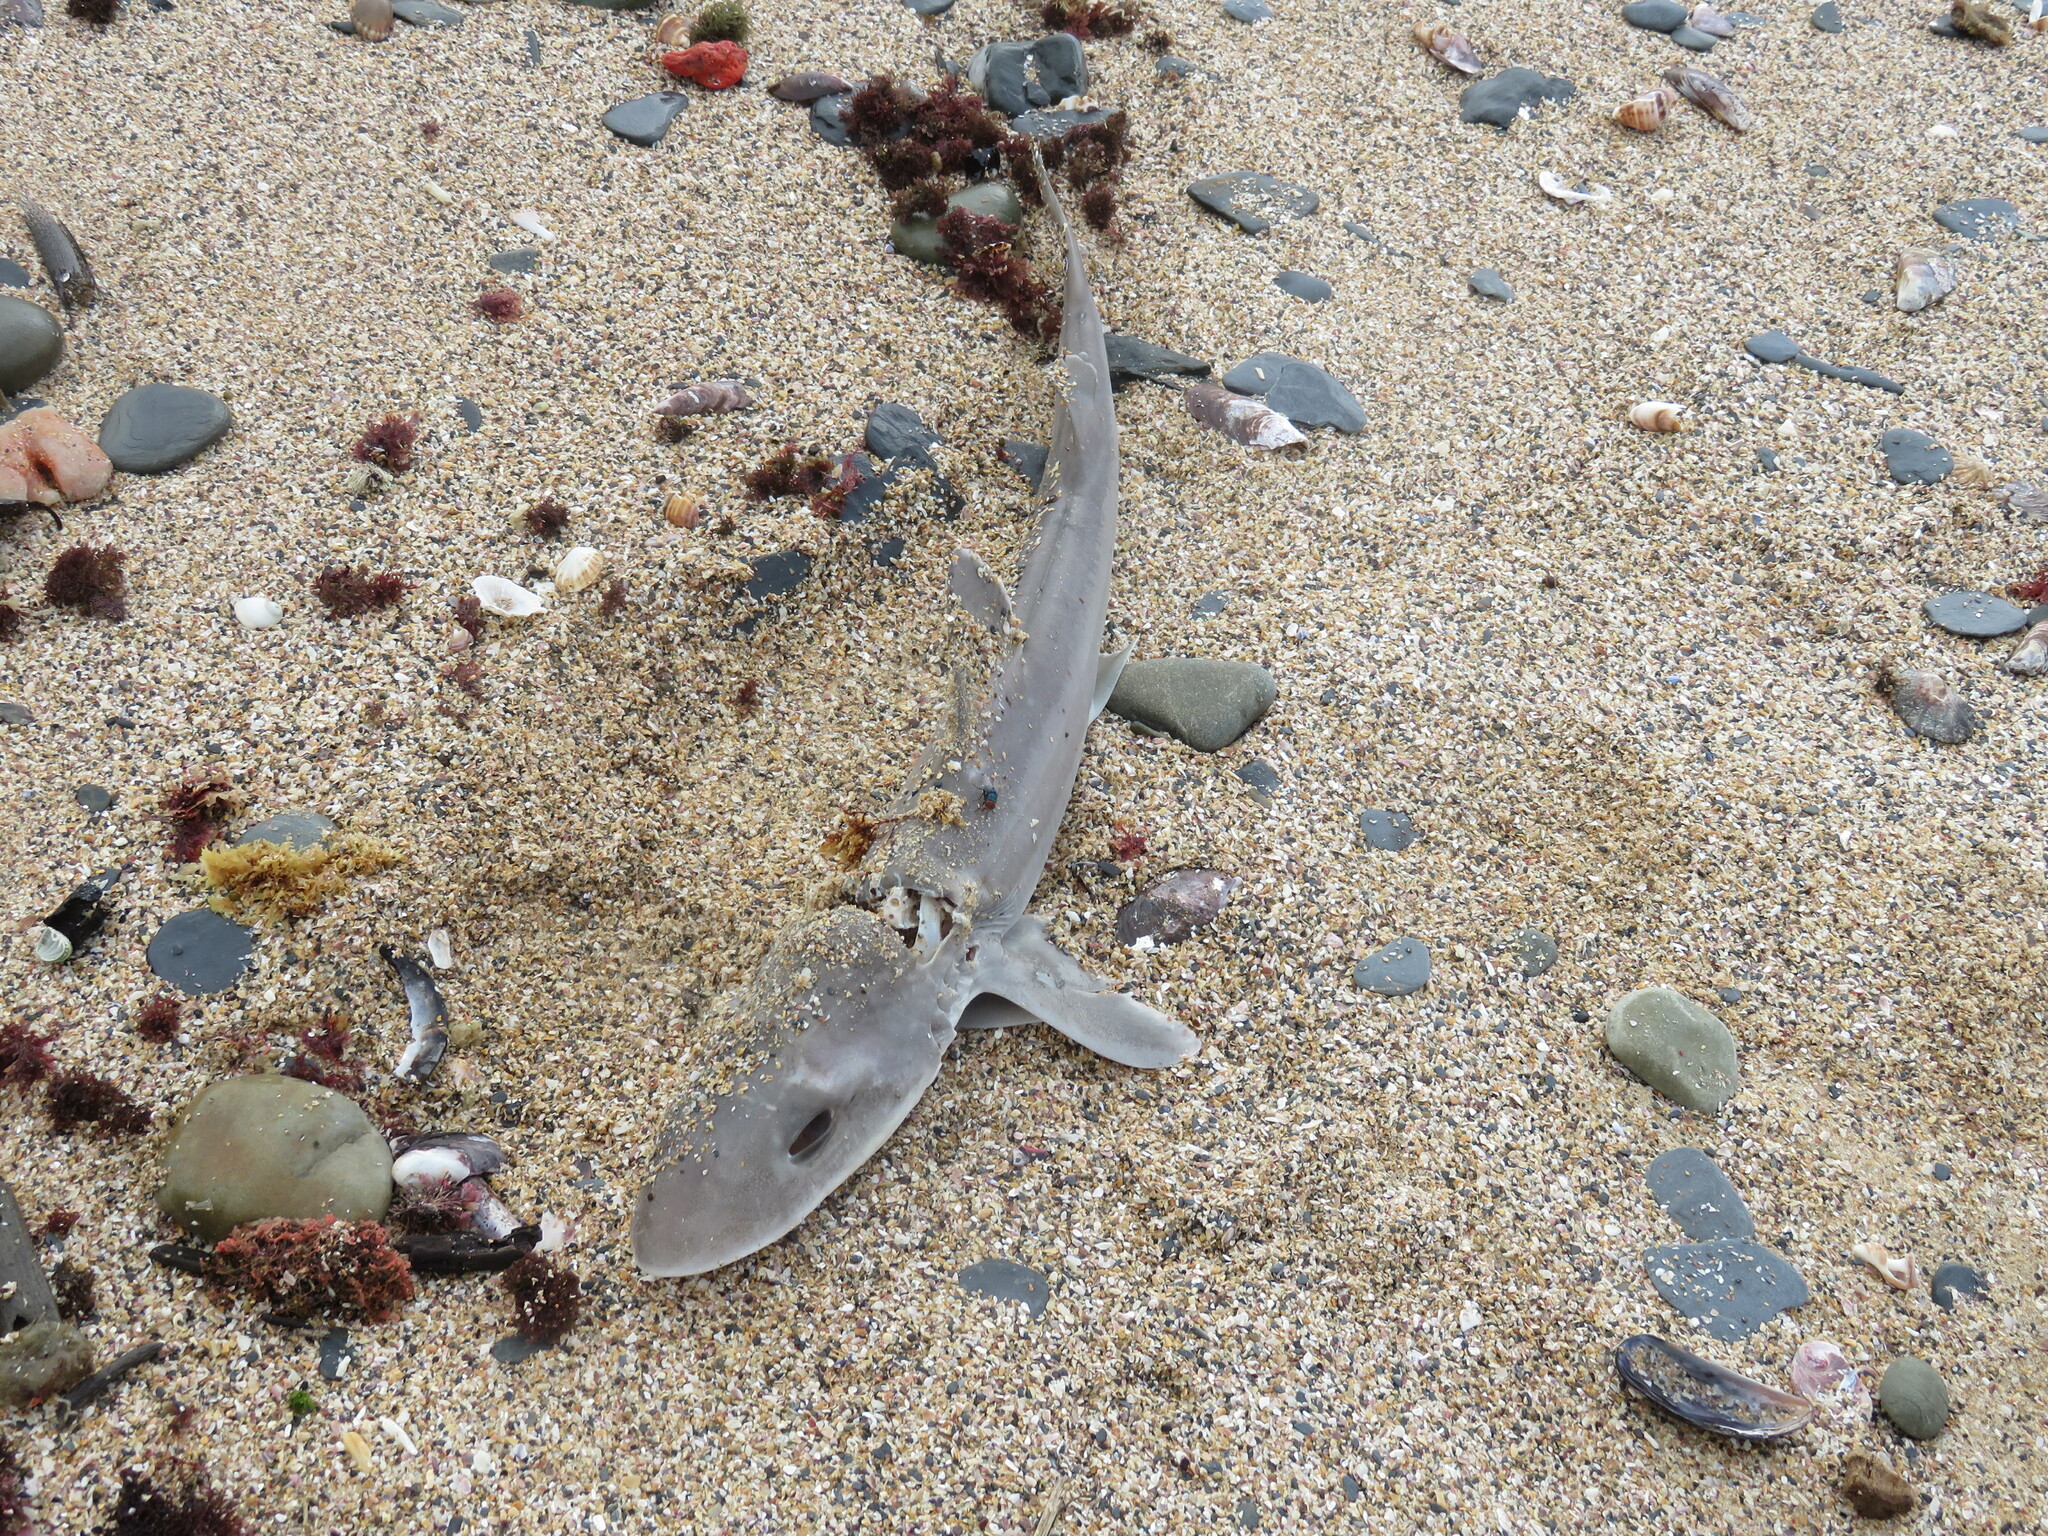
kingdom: Animalia
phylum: Chordata
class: Elasmobranchii
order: Carcharhiniformes
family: Triakidae
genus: Mustelus
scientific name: Mustelus mustelus
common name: Smooth-hound
